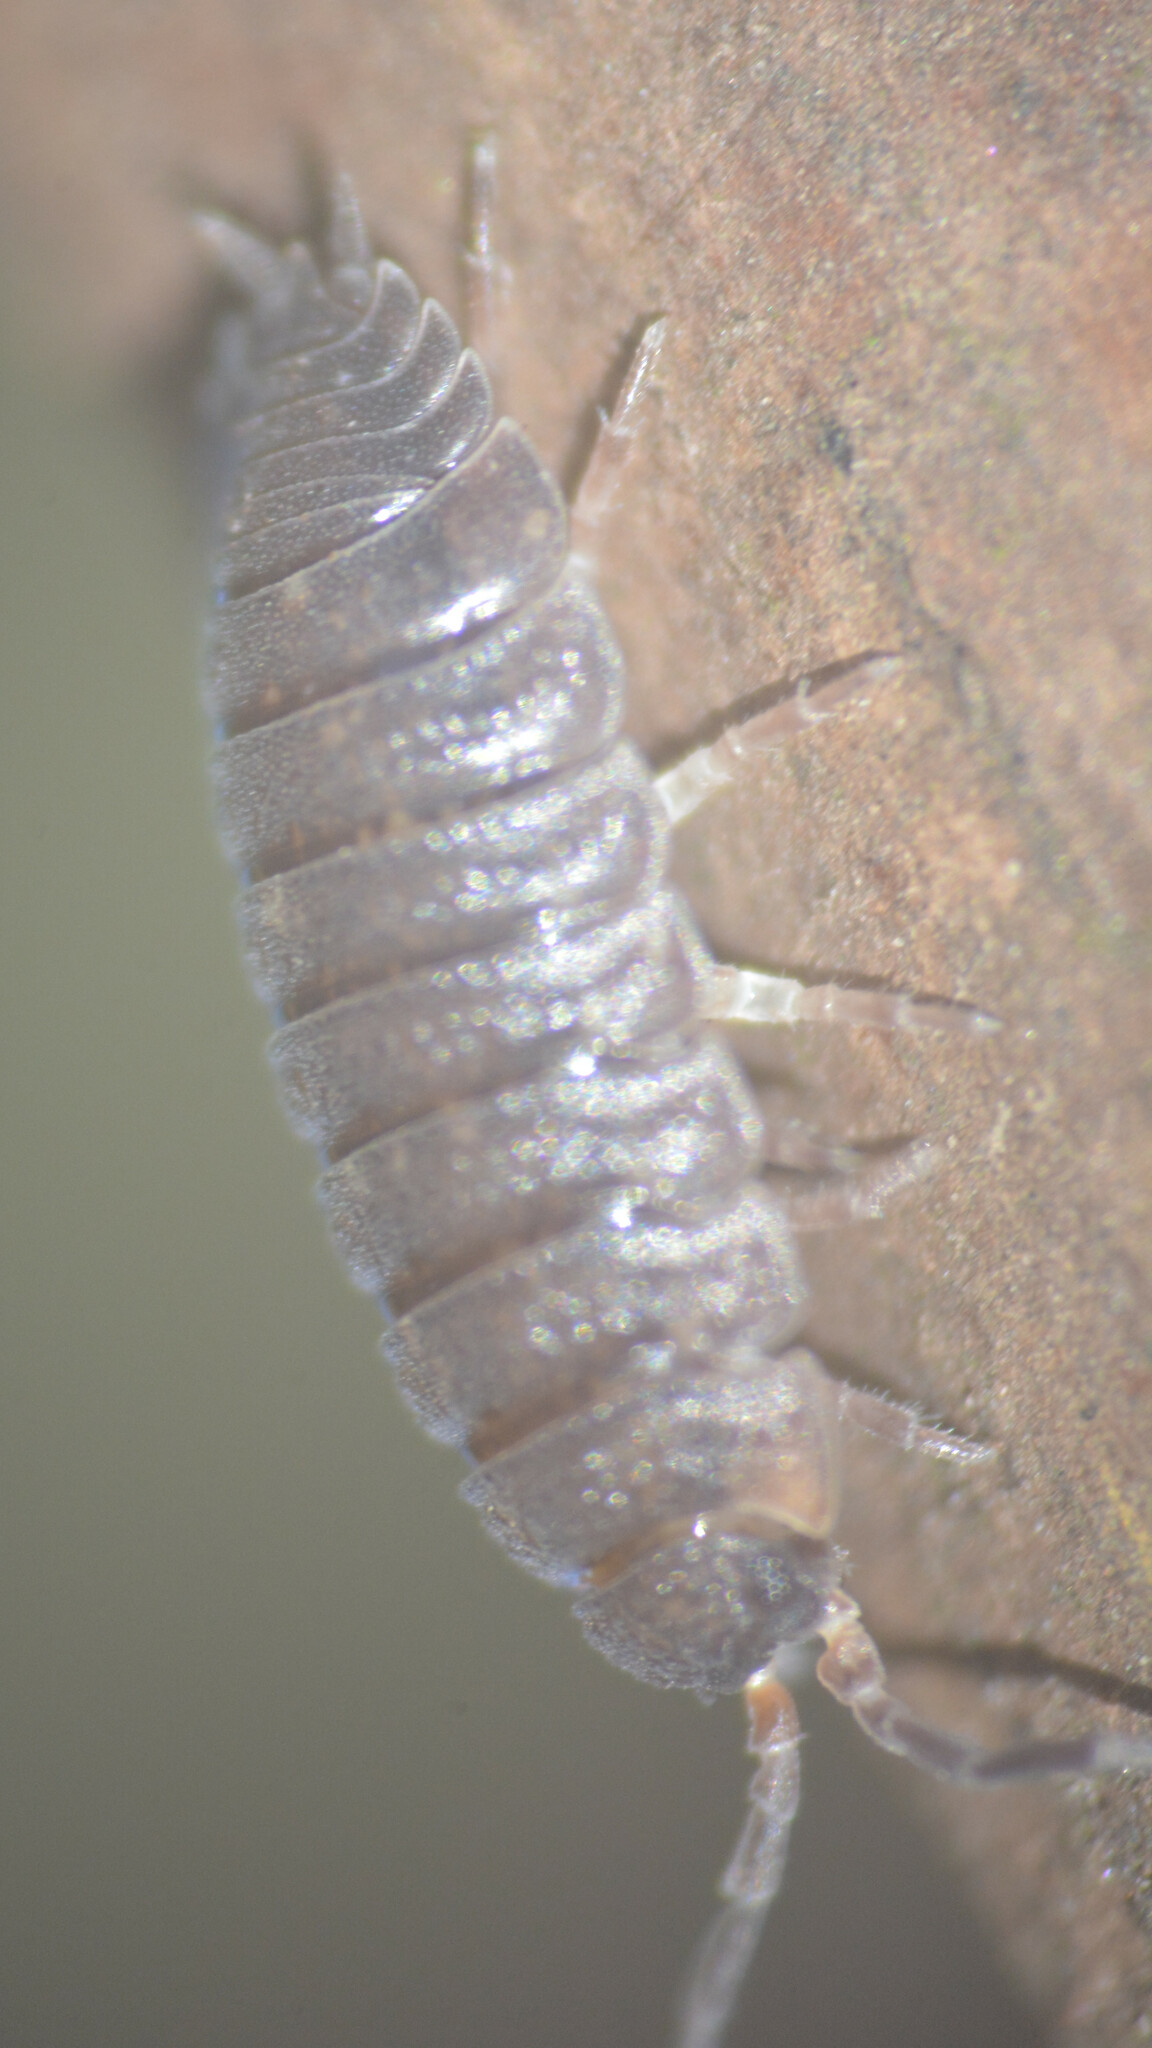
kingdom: Animalia
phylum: Arthropoda
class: Malacostraca
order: Isopoda
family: Porcellionidae
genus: Porcellio
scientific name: Porcellio scaber
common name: Common rough woodlouse
